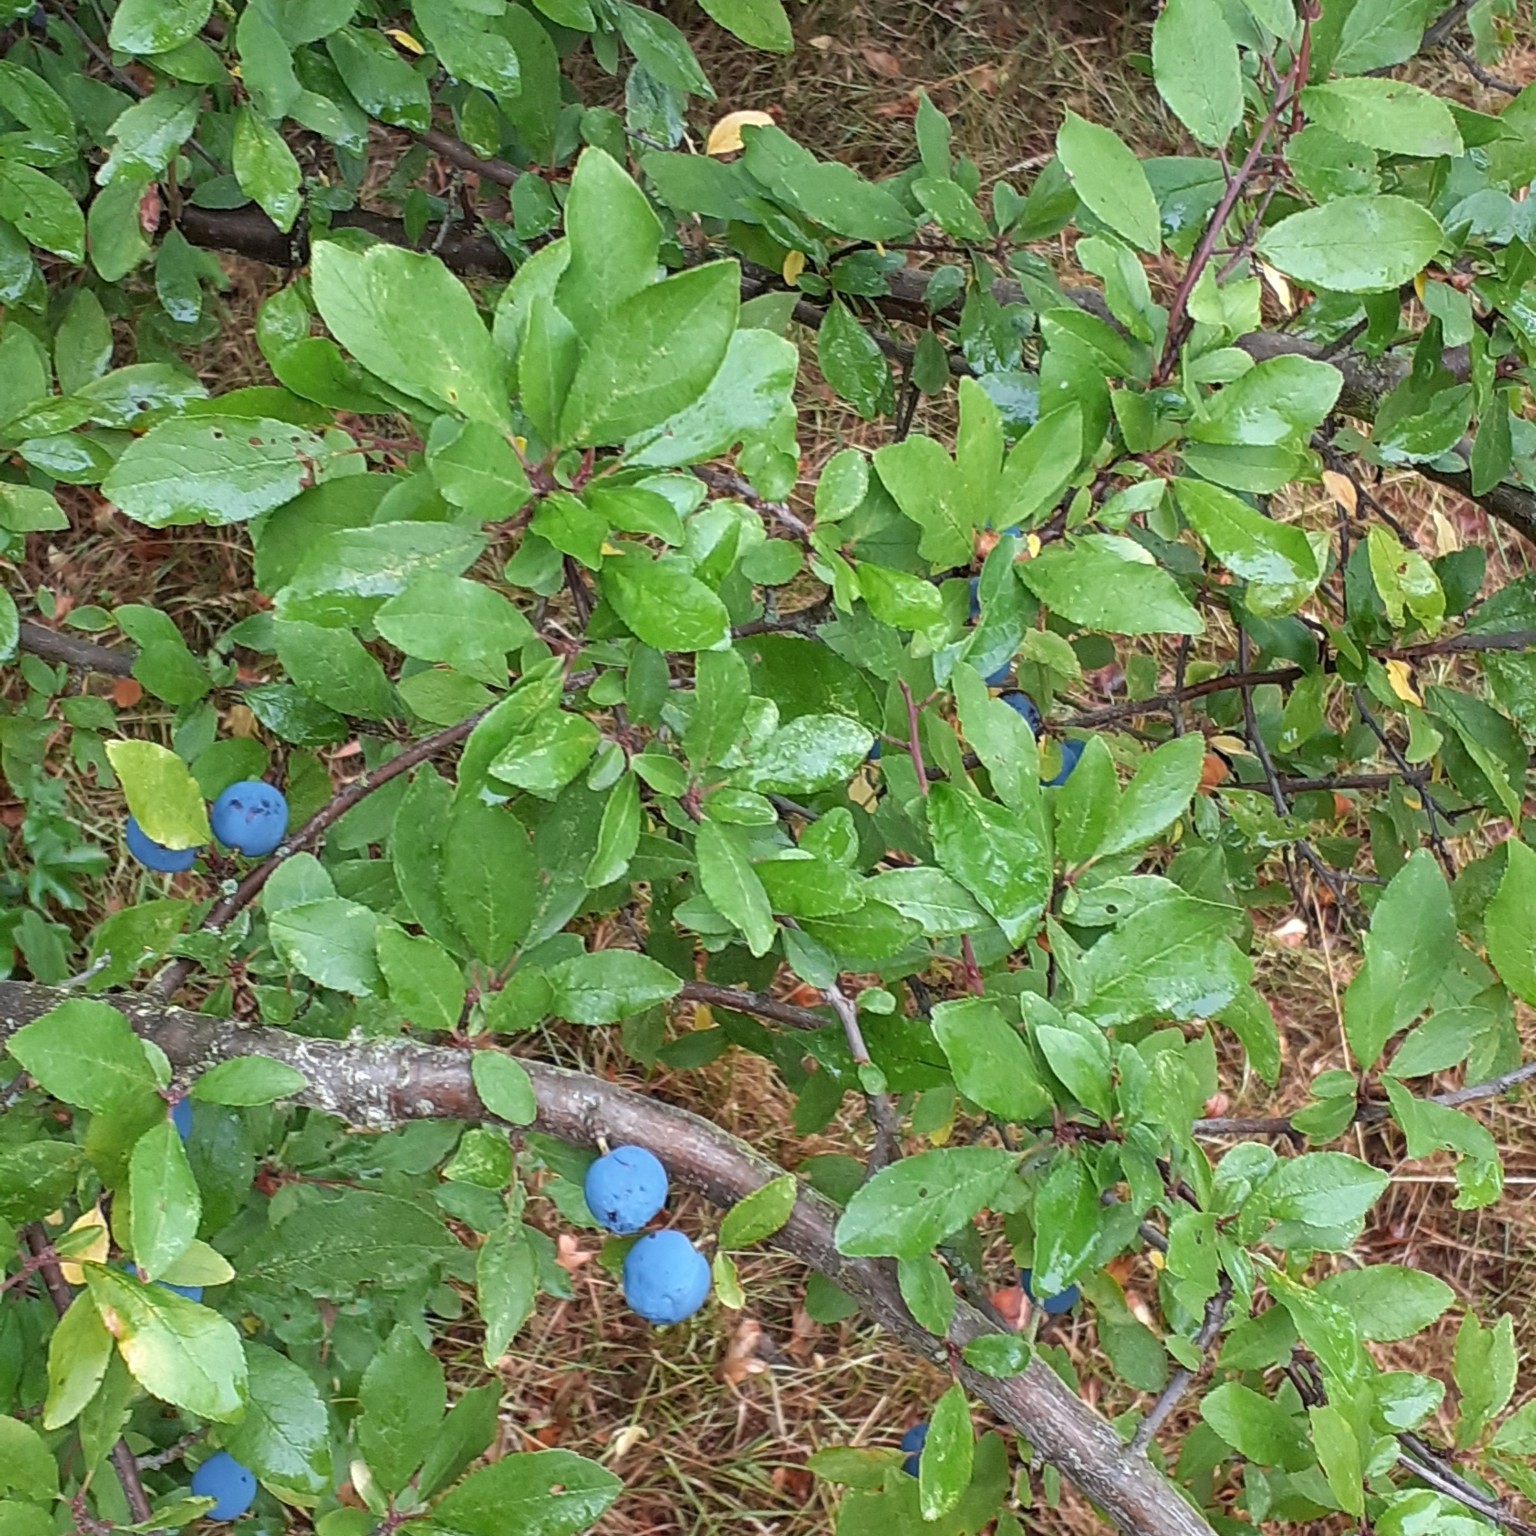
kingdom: Plantae
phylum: Tracheophyta
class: Magnoliopsida
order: Rosales
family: Rosaceae
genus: Prunus
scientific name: Prunus spinosa
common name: Blackthorn
